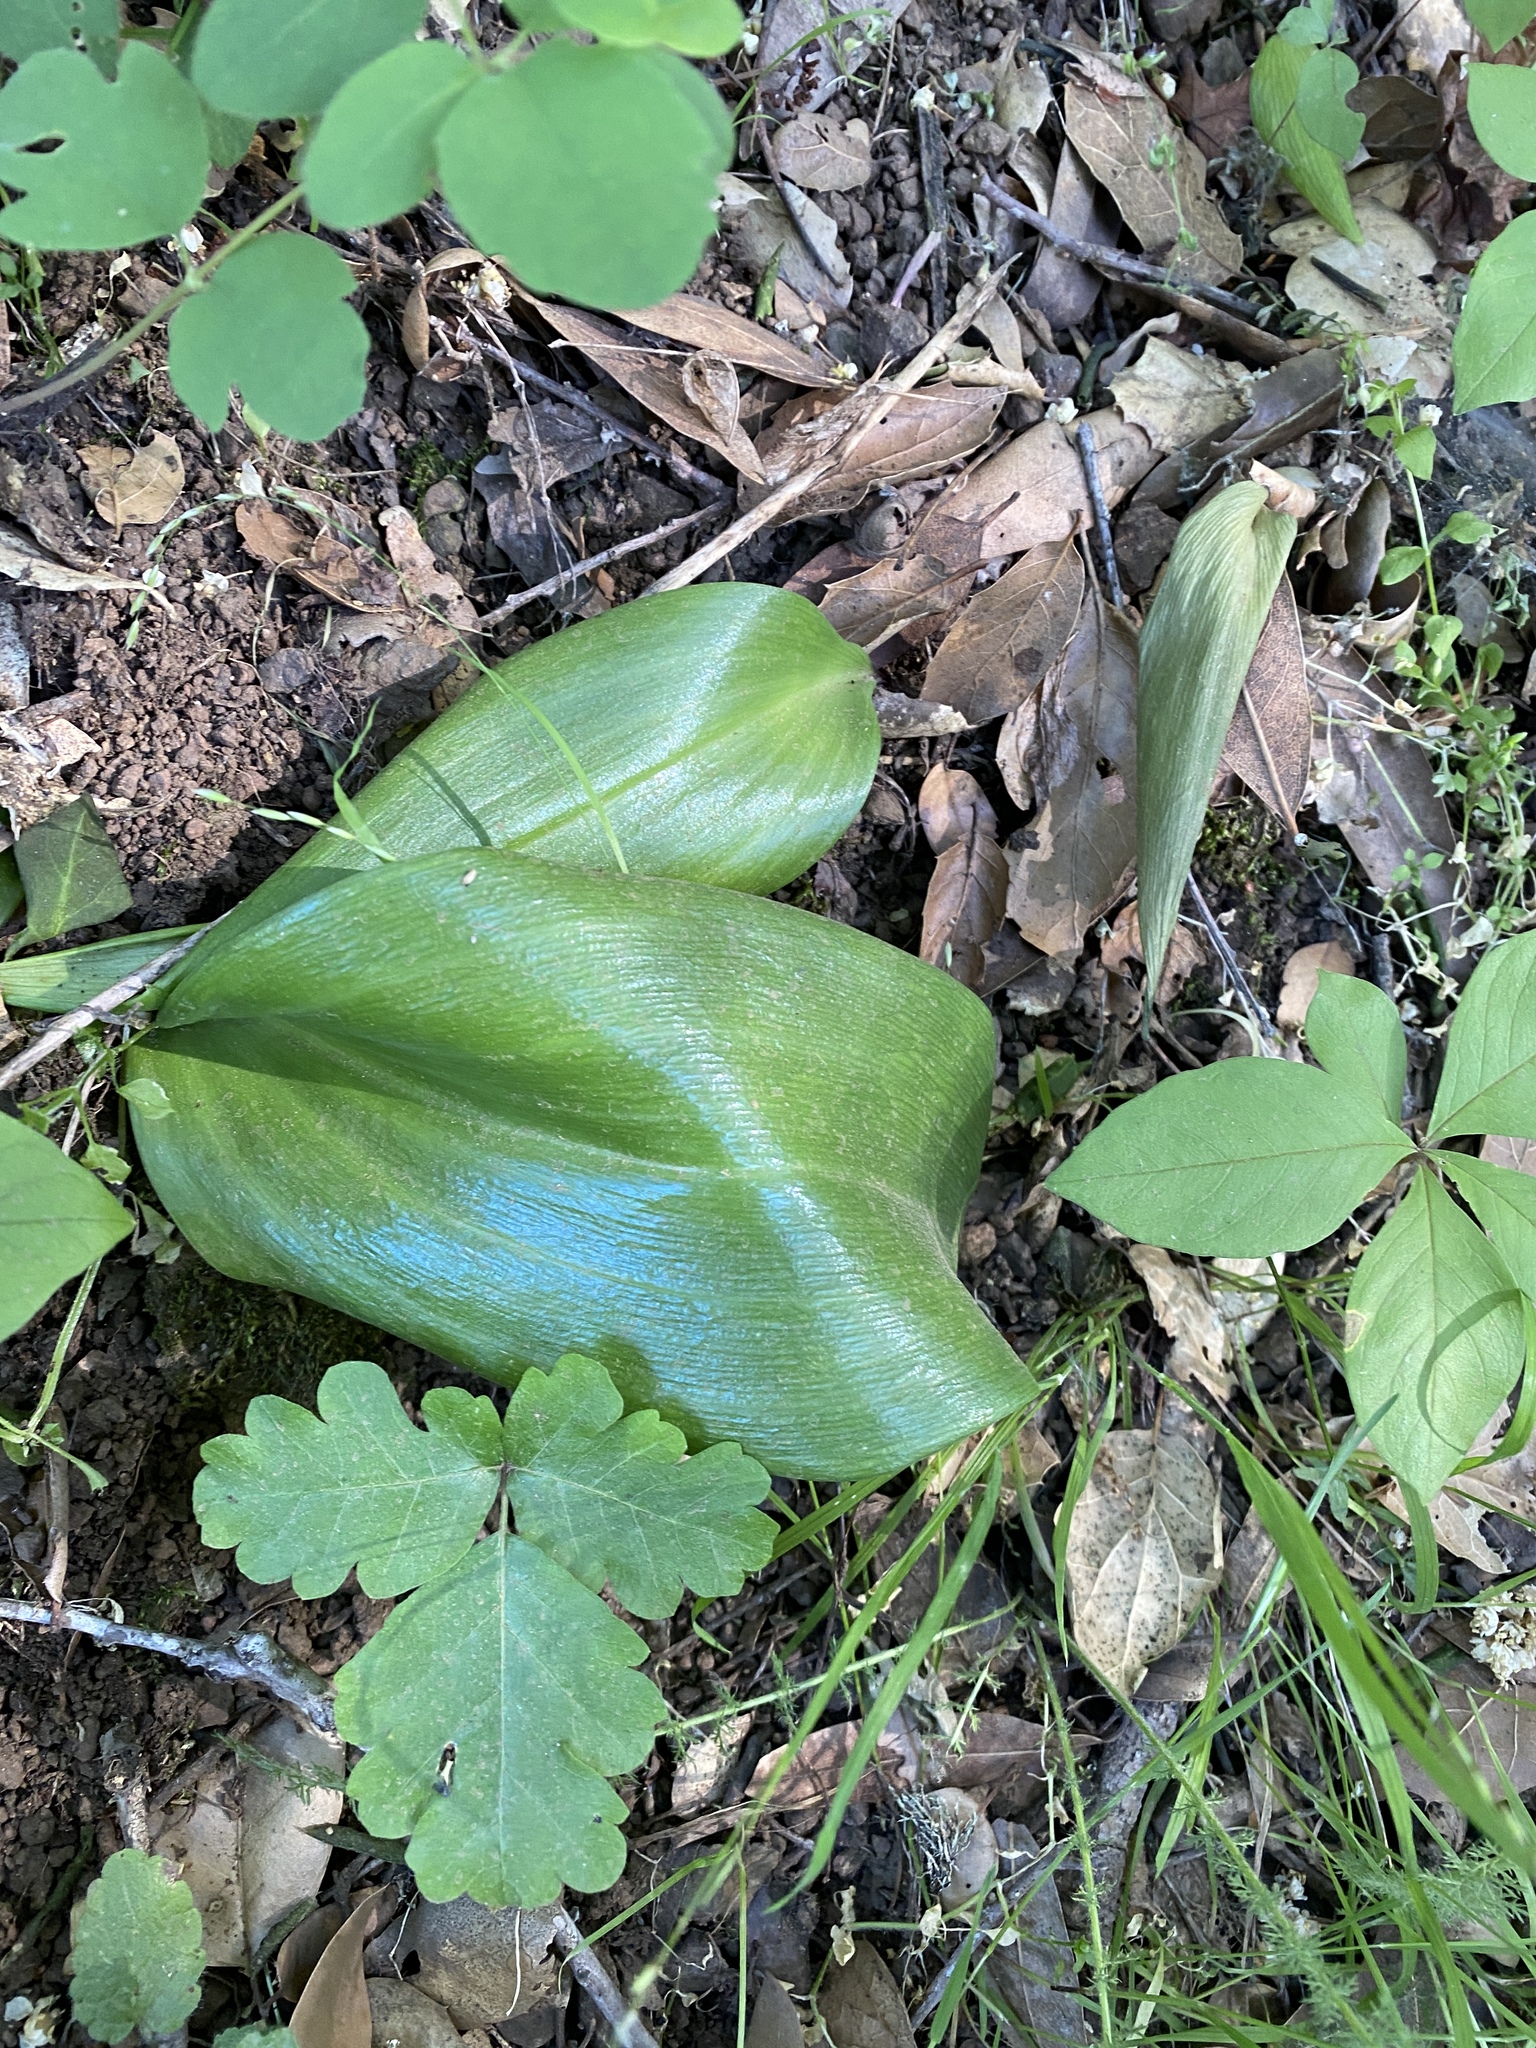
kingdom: Plantae
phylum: Tracheophyta
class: Liliopsida
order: Liliales
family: Liliaceae
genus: Fritillaria
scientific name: Fritillaria affinis
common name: Ojai fritillary
